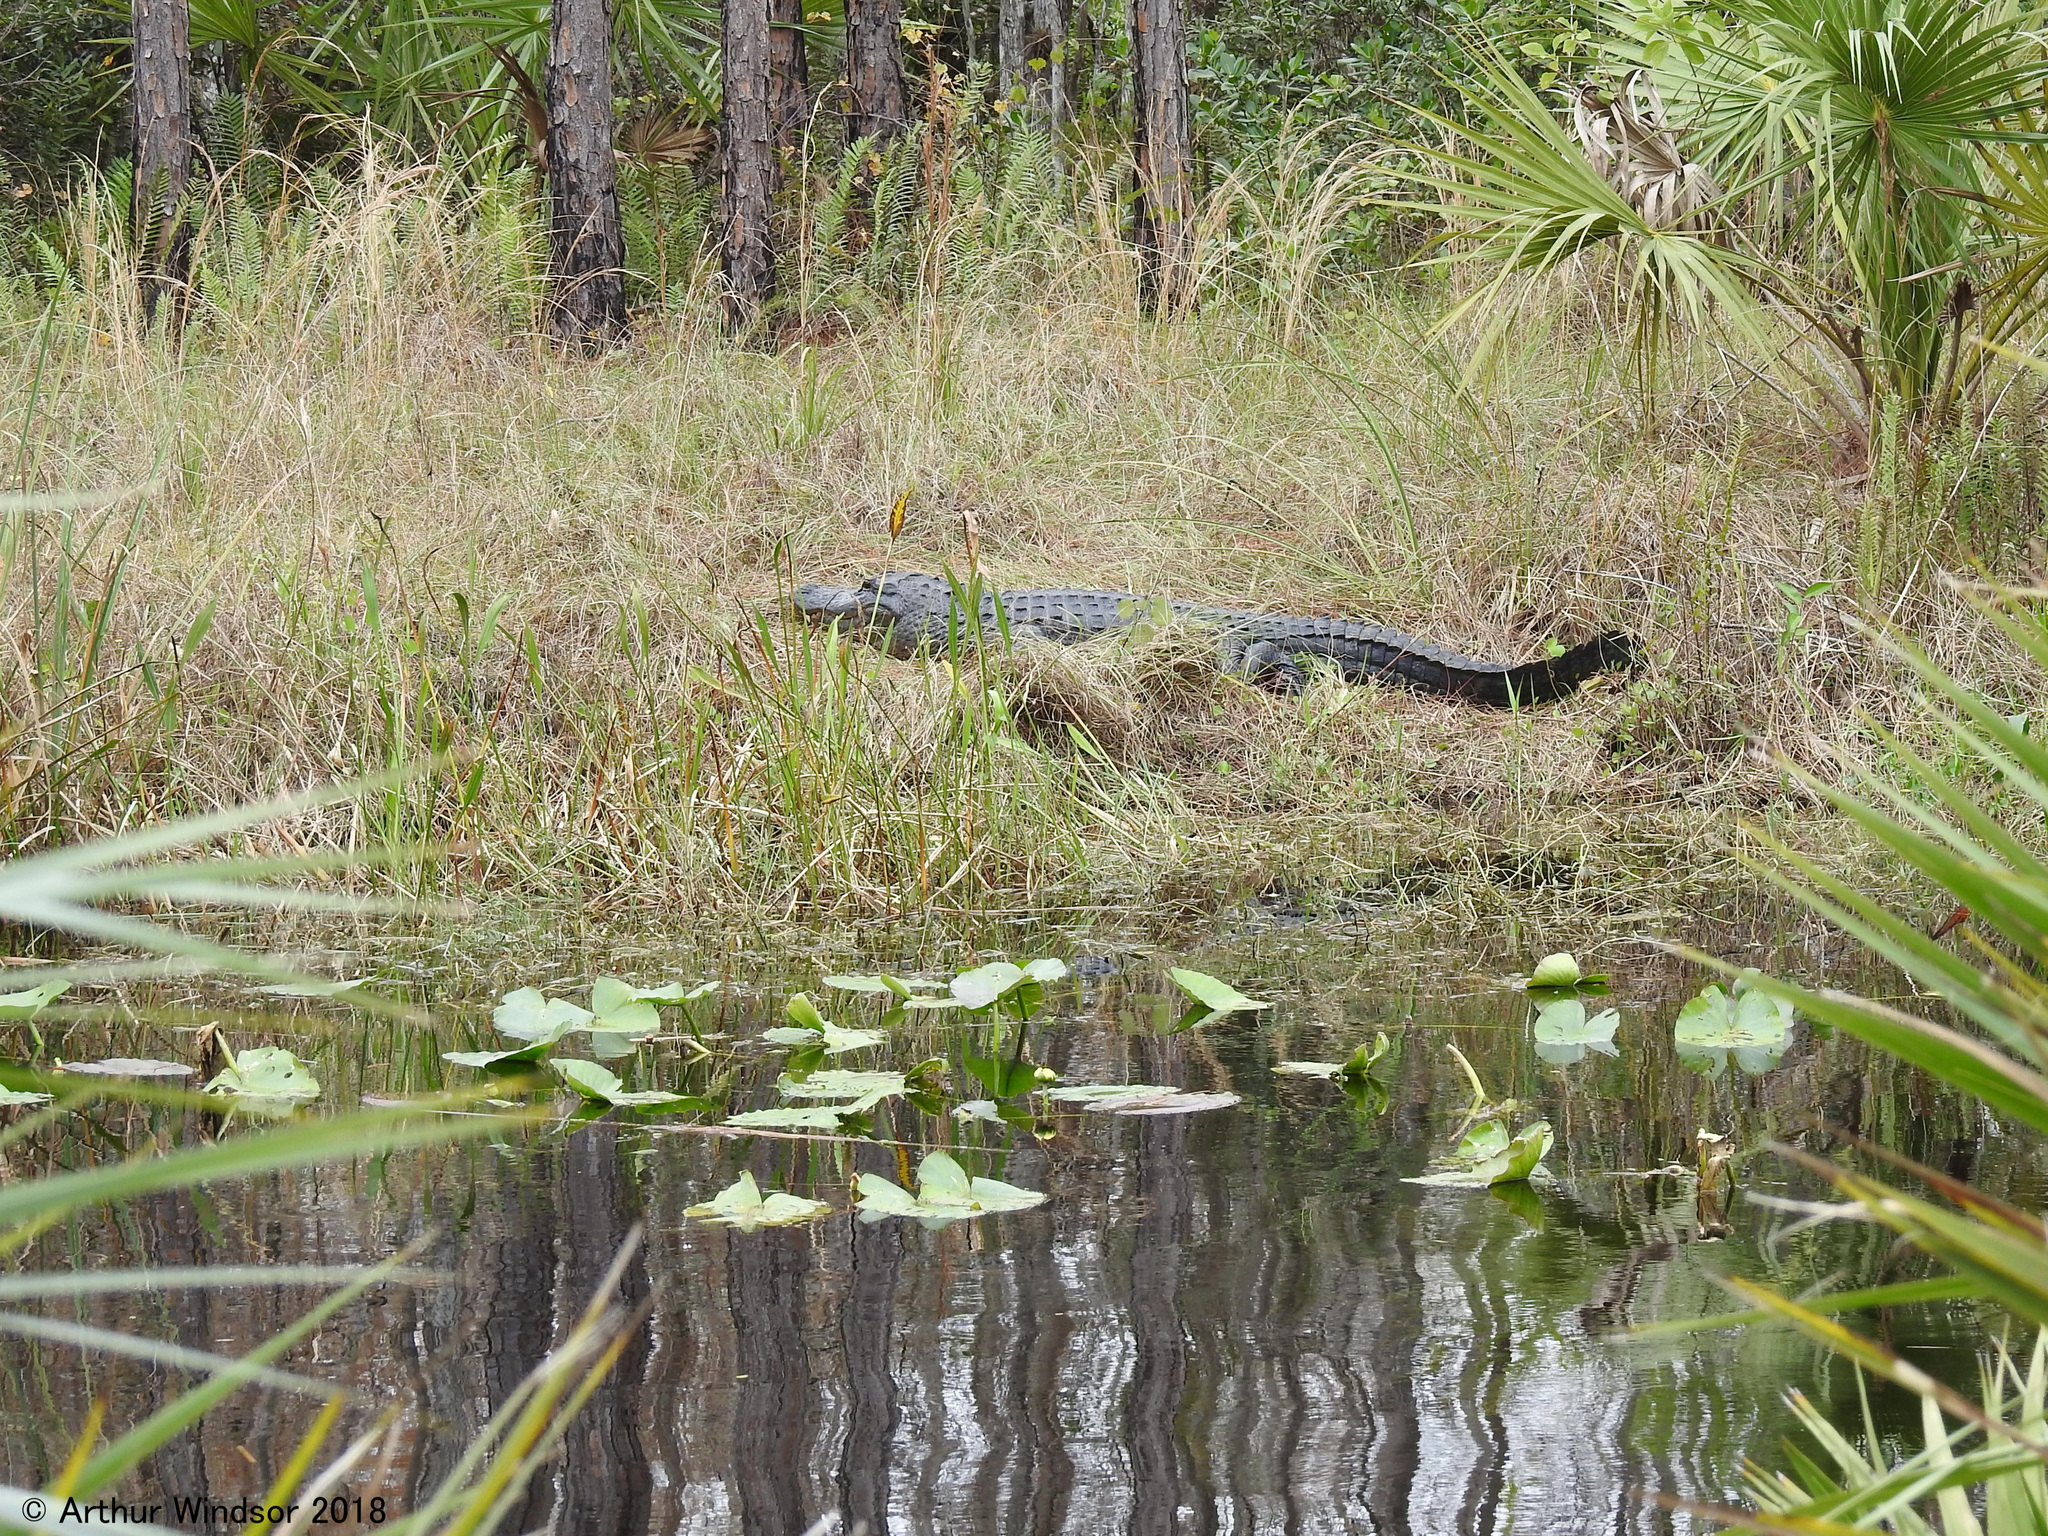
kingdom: Animalia
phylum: Chordata
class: Crocodylia
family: Alligatoridae
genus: Alligator
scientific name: Alligator mississippiensis
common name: American alligator
